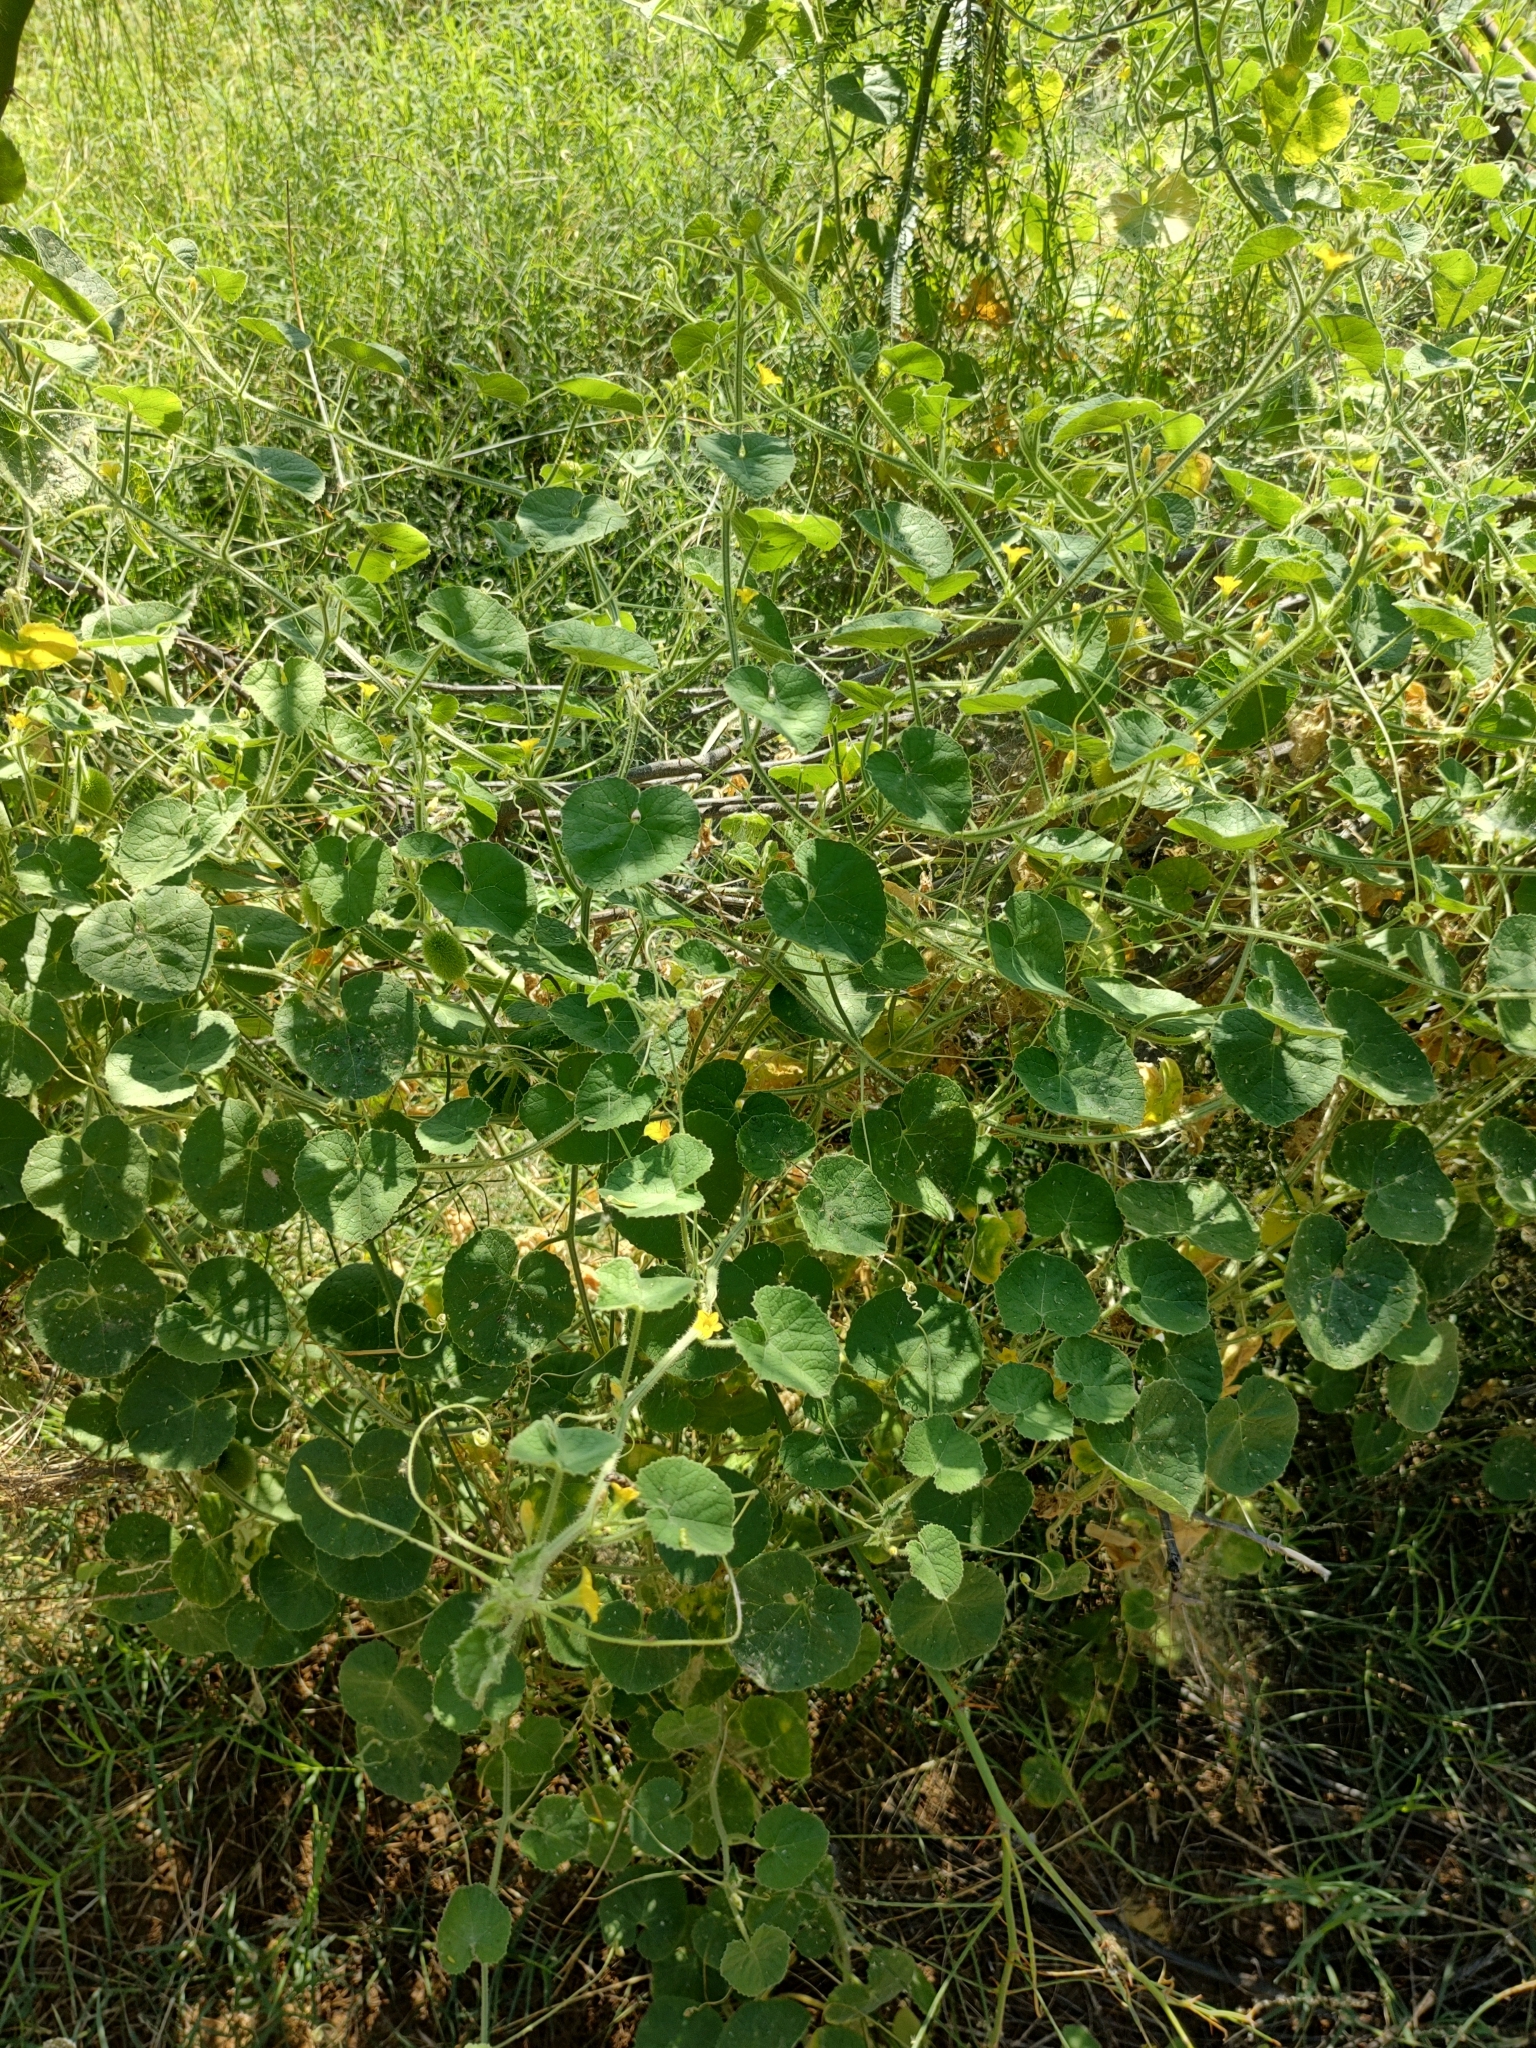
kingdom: Plantae
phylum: Tracheophyta
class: Magnoliopsida
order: Cucurbitales
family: Cucurbitaceae
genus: Cucumis
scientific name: Cucumis dipsaceus
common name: Hedgehog gourd
